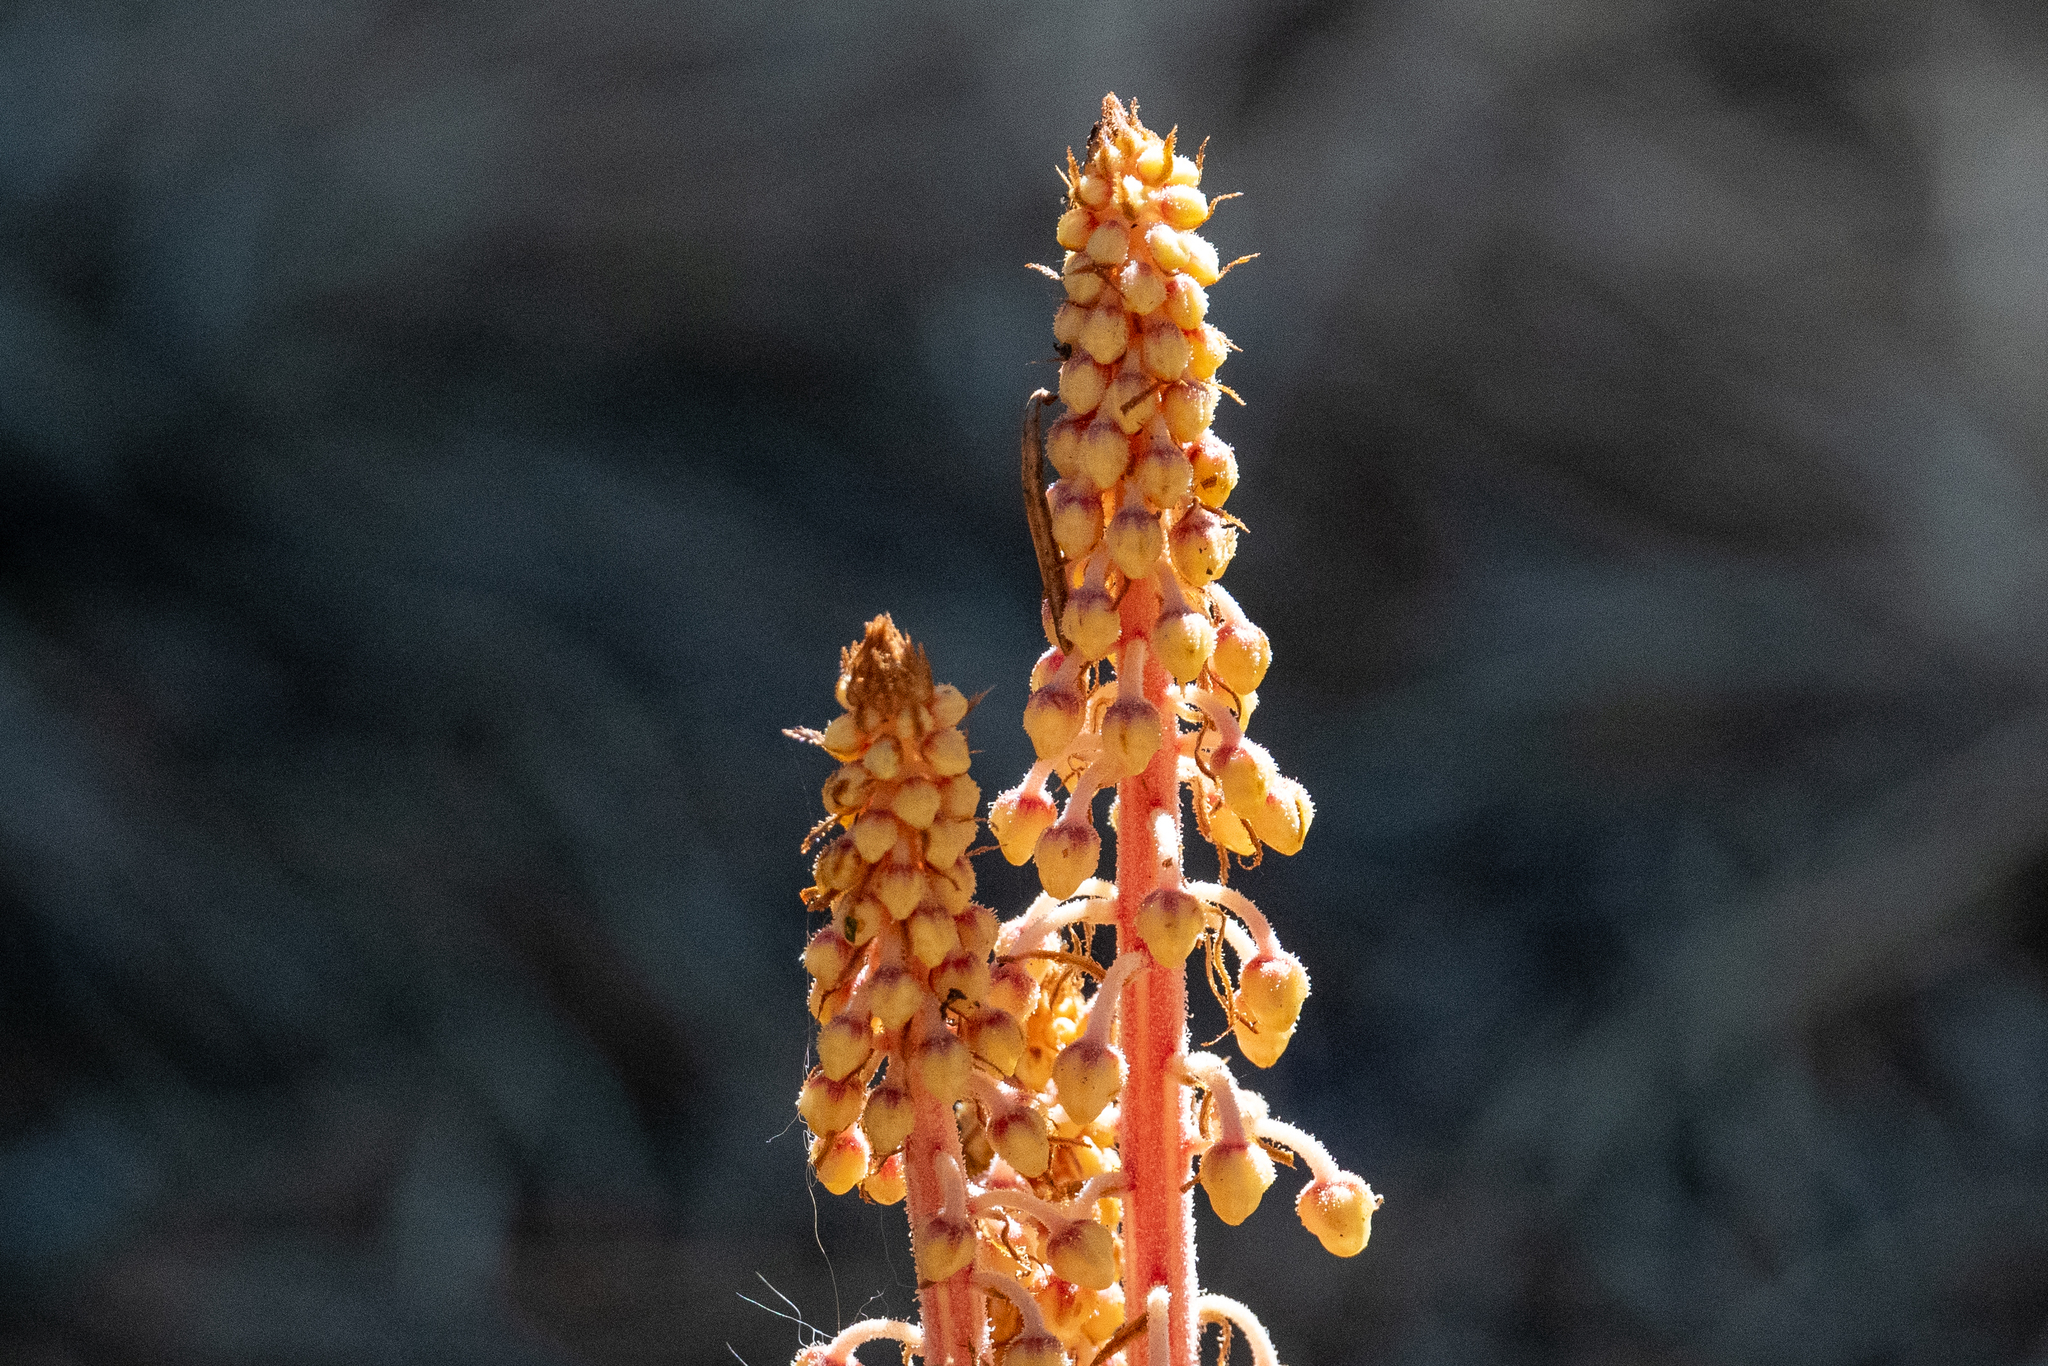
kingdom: Plantae
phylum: Tracheophyta
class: Magnoliopsida
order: Ericales
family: Ericaceae
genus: Pterospora
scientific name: Pterospora andromedea
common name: Giant bird's-nest
